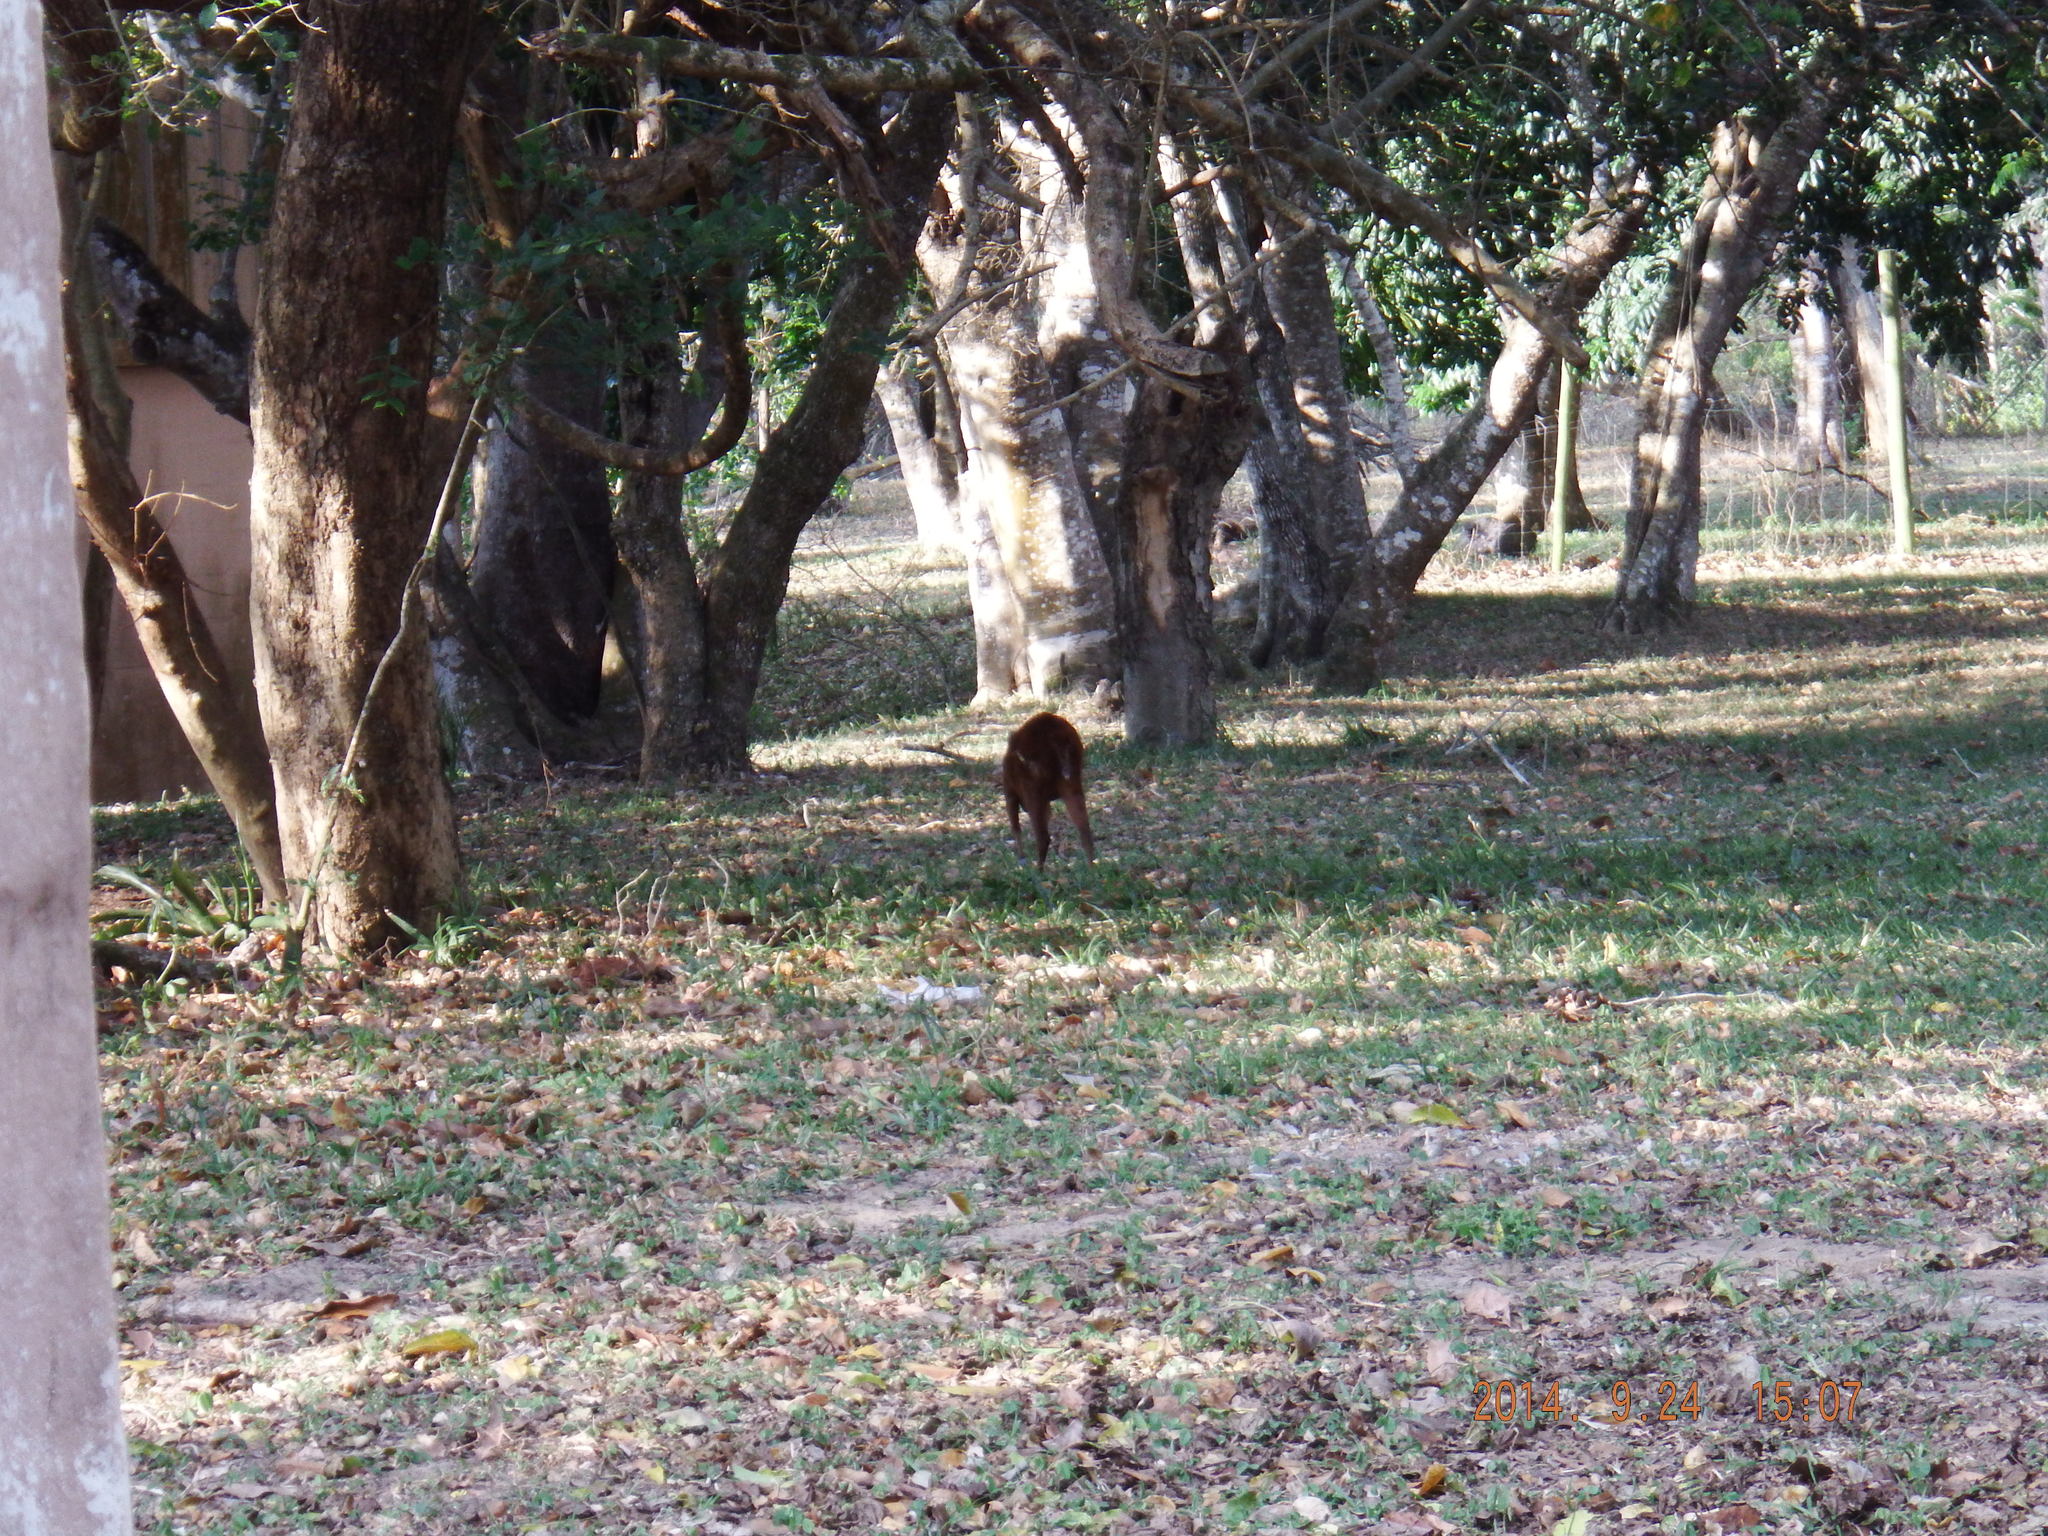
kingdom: Animalia
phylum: Chordata
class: Mammalia
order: Artiodactyla
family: Bovidae
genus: Cephalophus
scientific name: Cephalophus natalensis
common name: Red duiker
